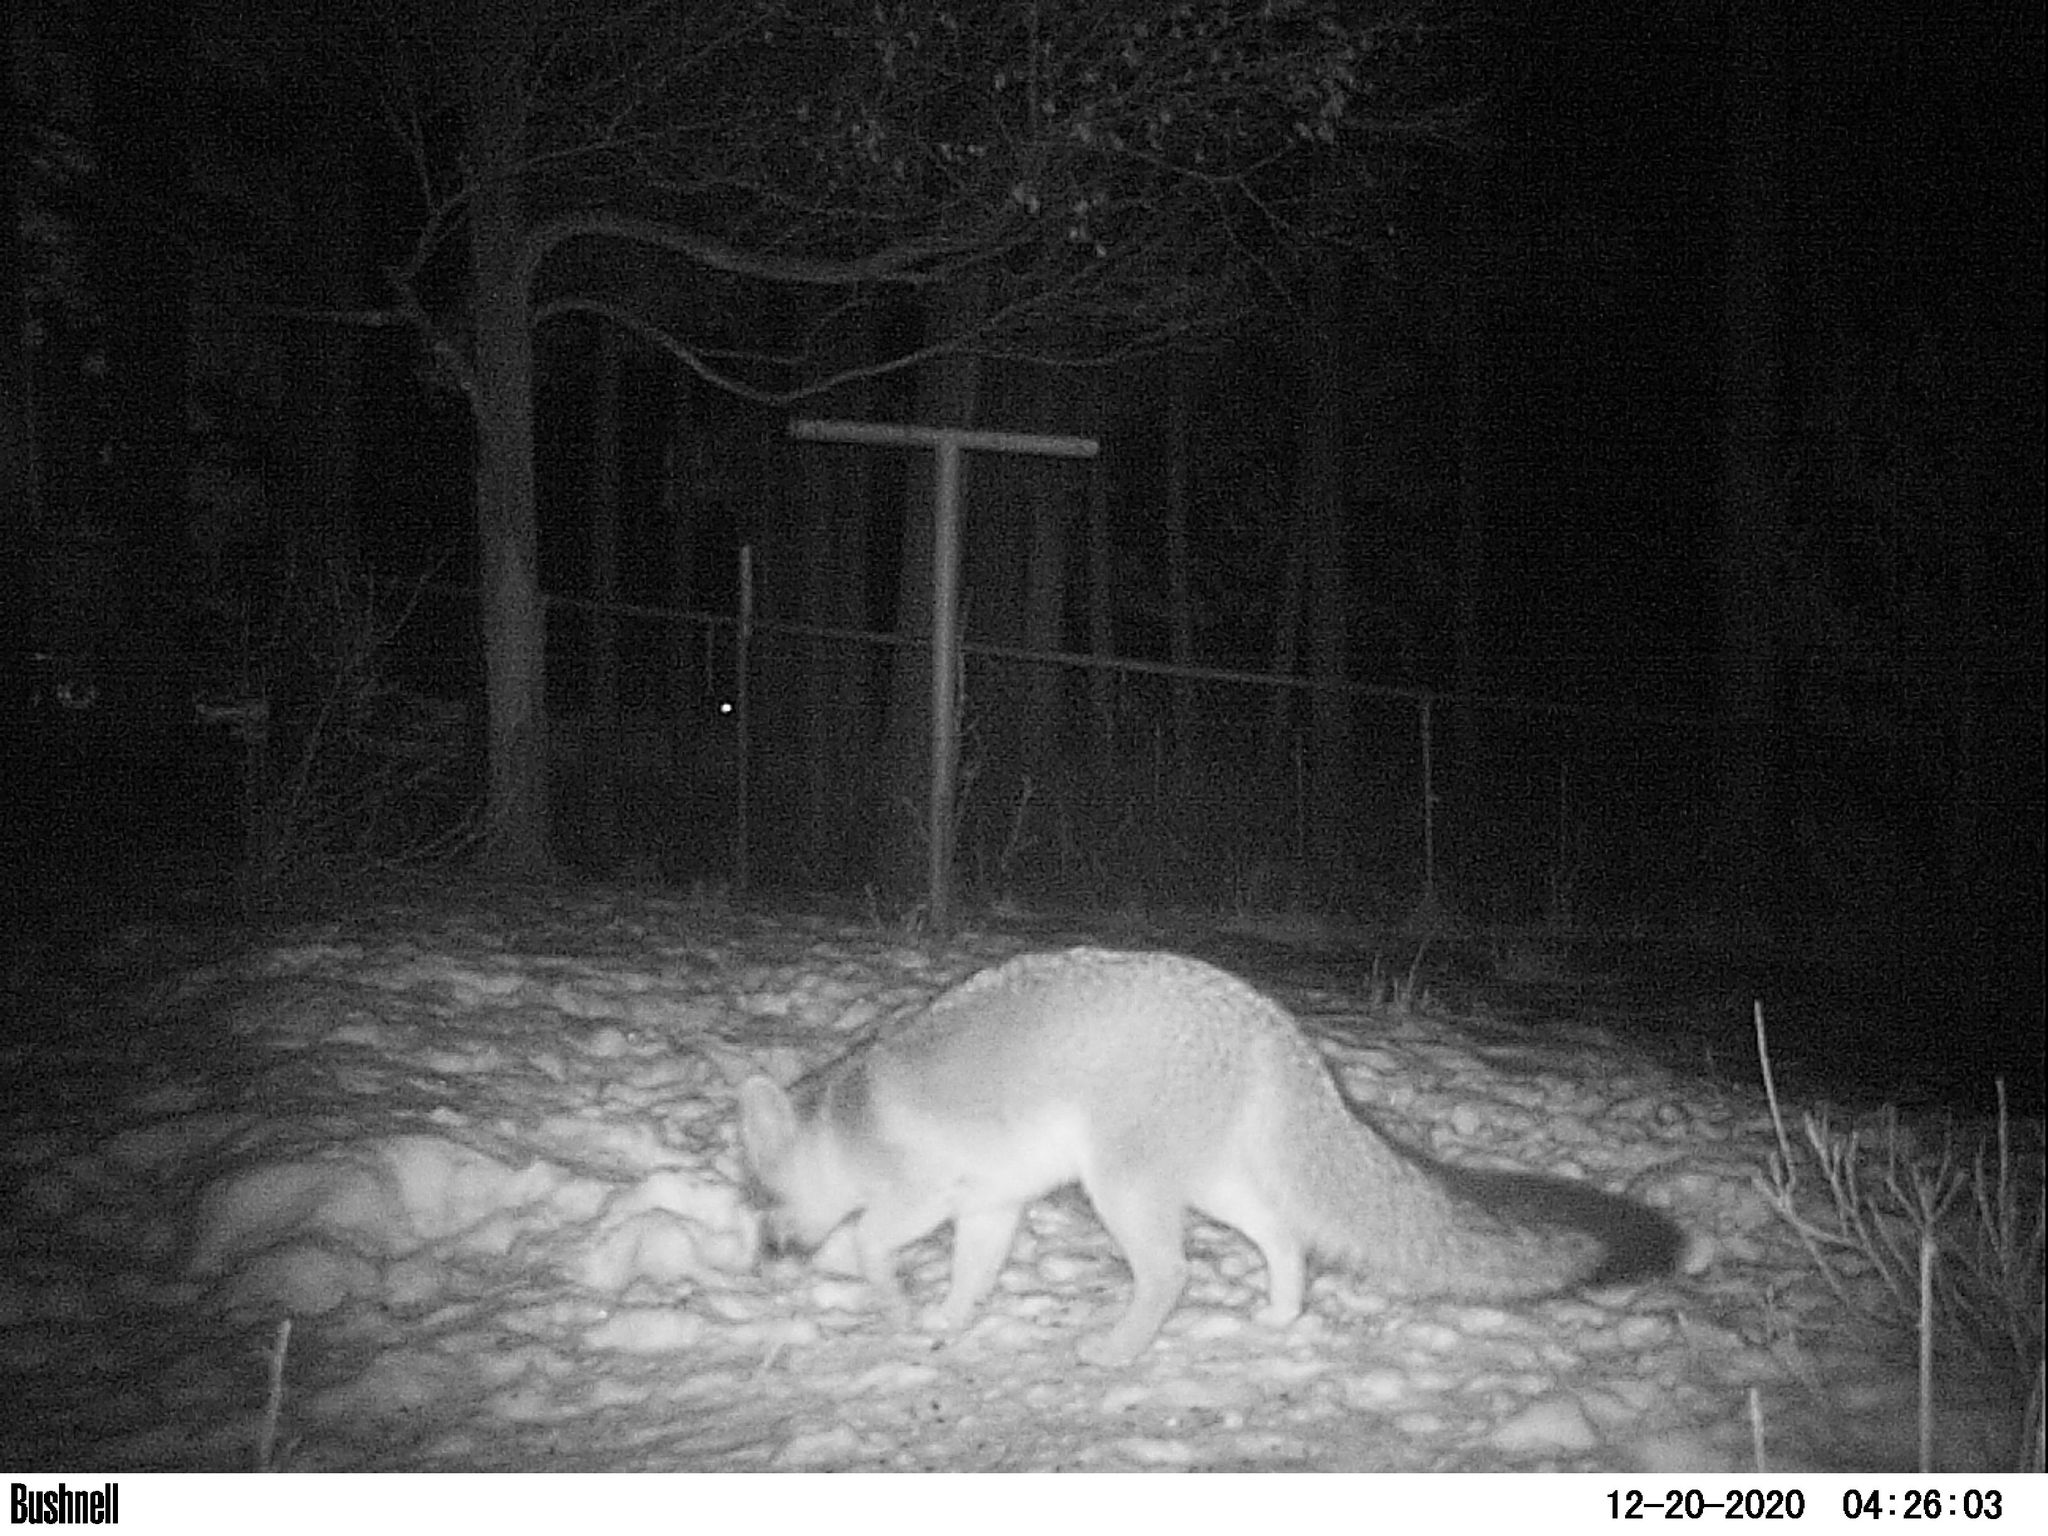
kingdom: Animalia
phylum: Chordata
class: Mammalia
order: Carnivora
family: Canidae
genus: Urocyon
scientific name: Urocyon cinereoargenteus
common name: Gray fox
